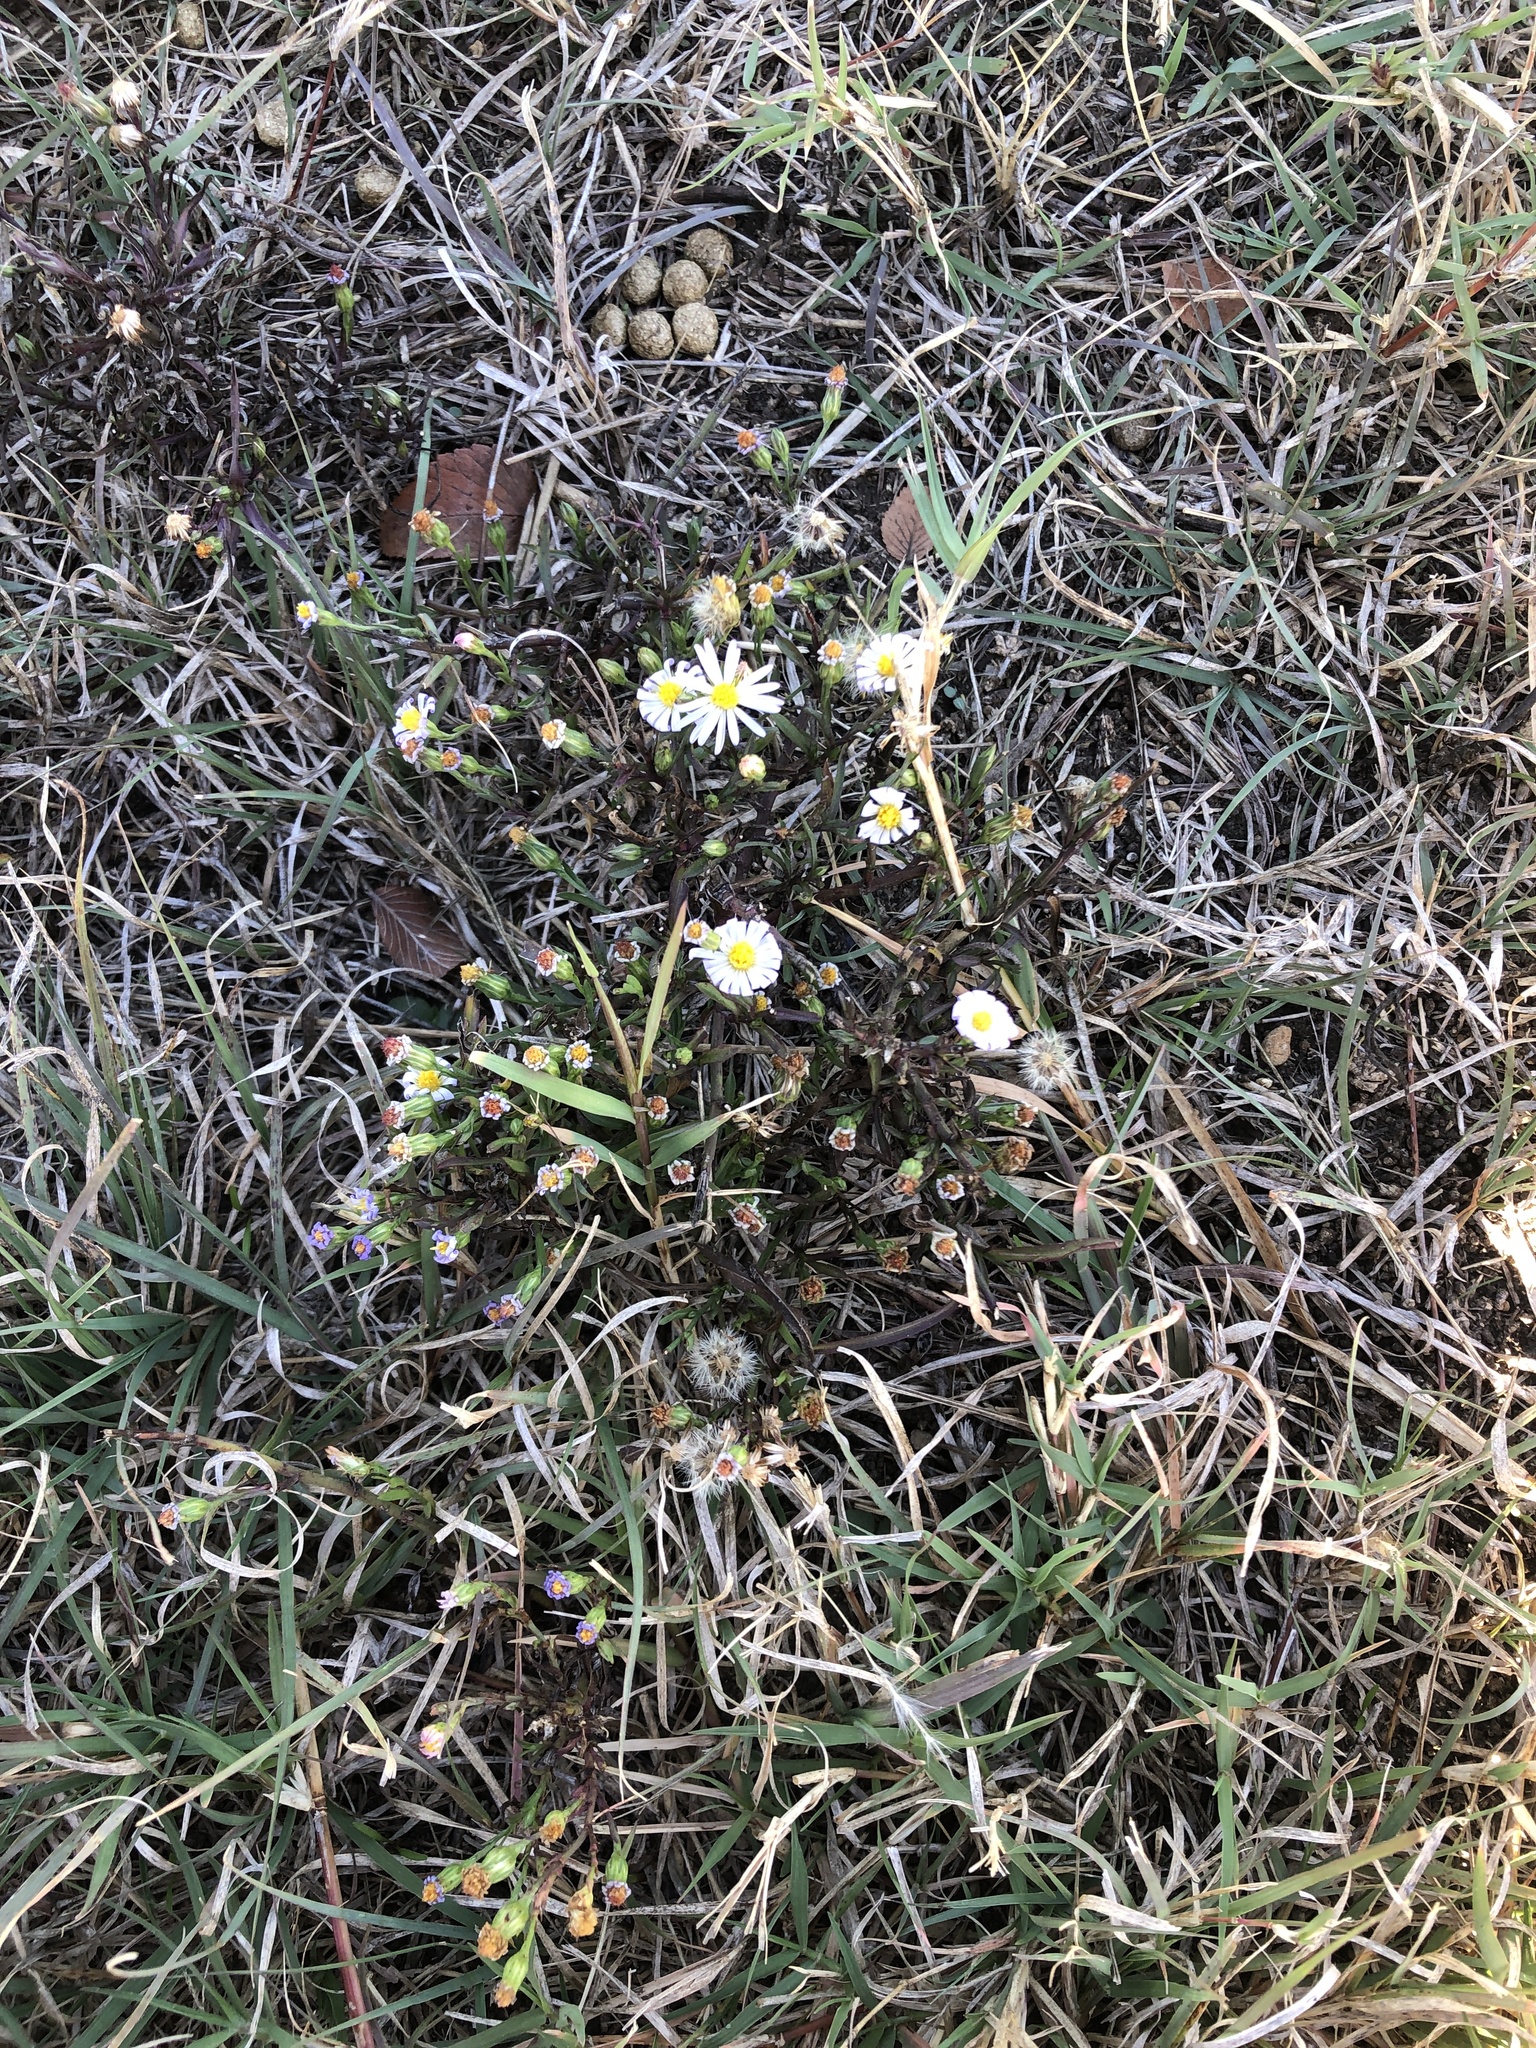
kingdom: Plantae
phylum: Tracheophyta
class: Magnoliopsida
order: Asterales
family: Asteraceae
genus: Symphyotrichum
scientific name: Symphyotrichum divaricatum
